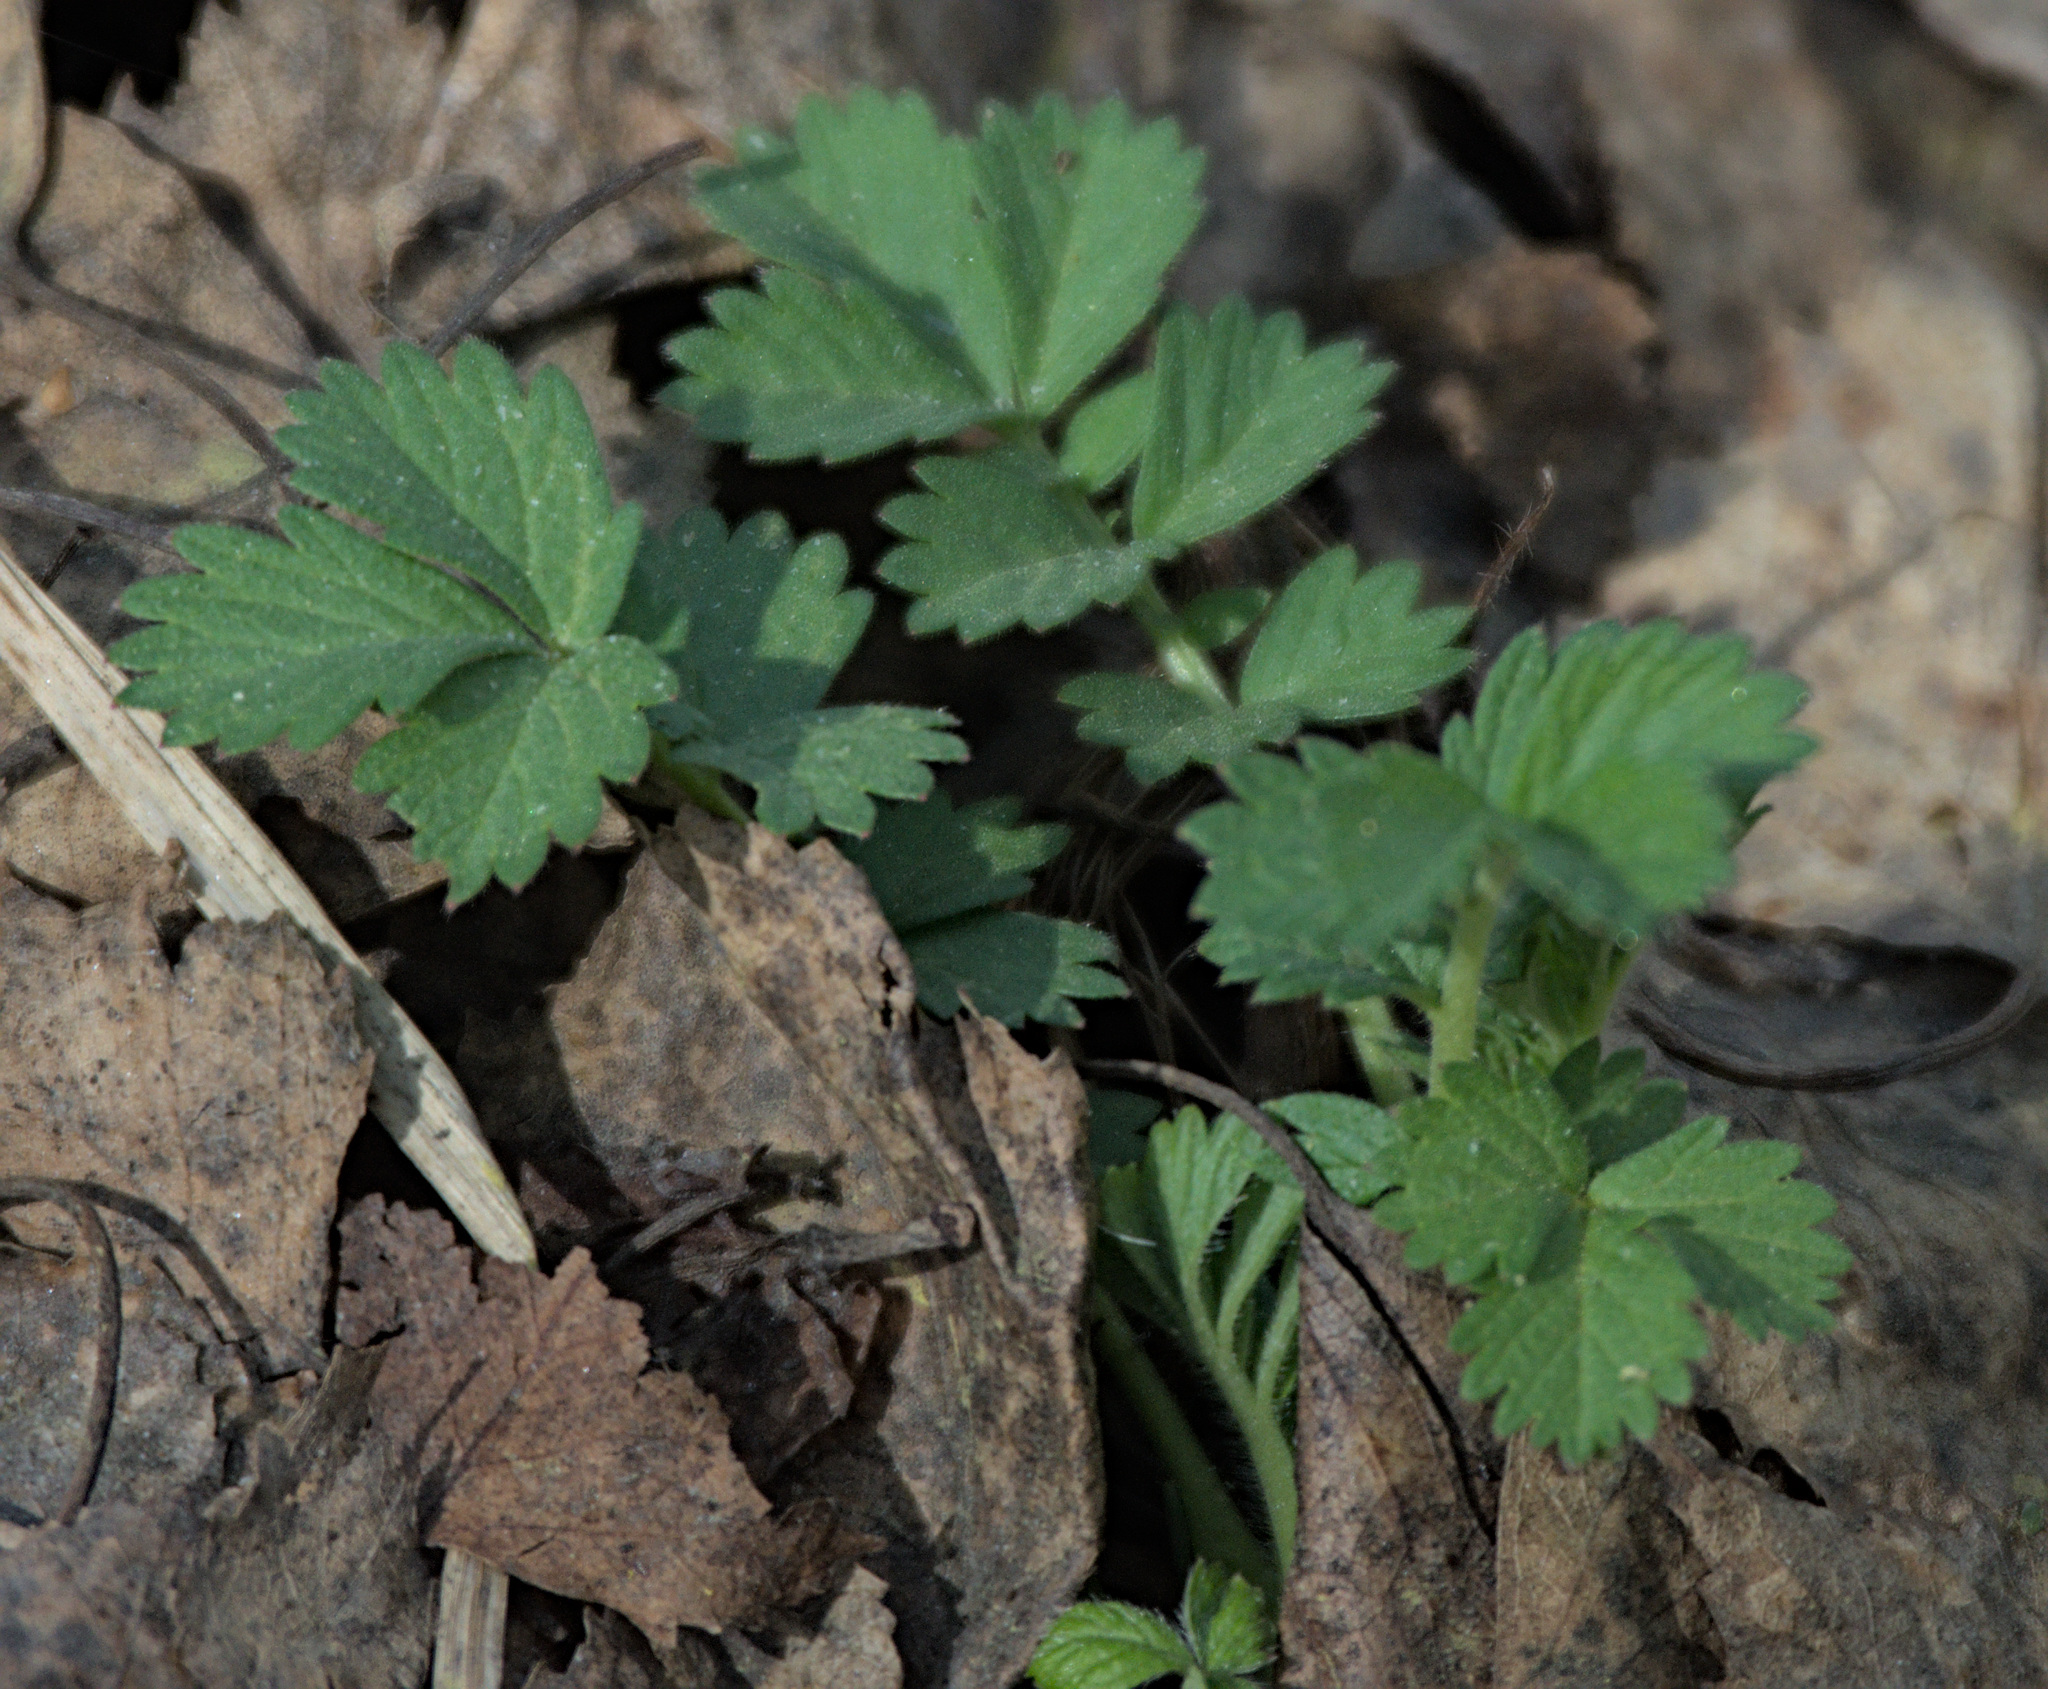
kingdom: Plantae
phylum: Tracheophyta
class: Magnoliopsida
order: Rosales
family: Rosaceae
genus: Agrimonia
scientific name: Agrimonia pilosa
